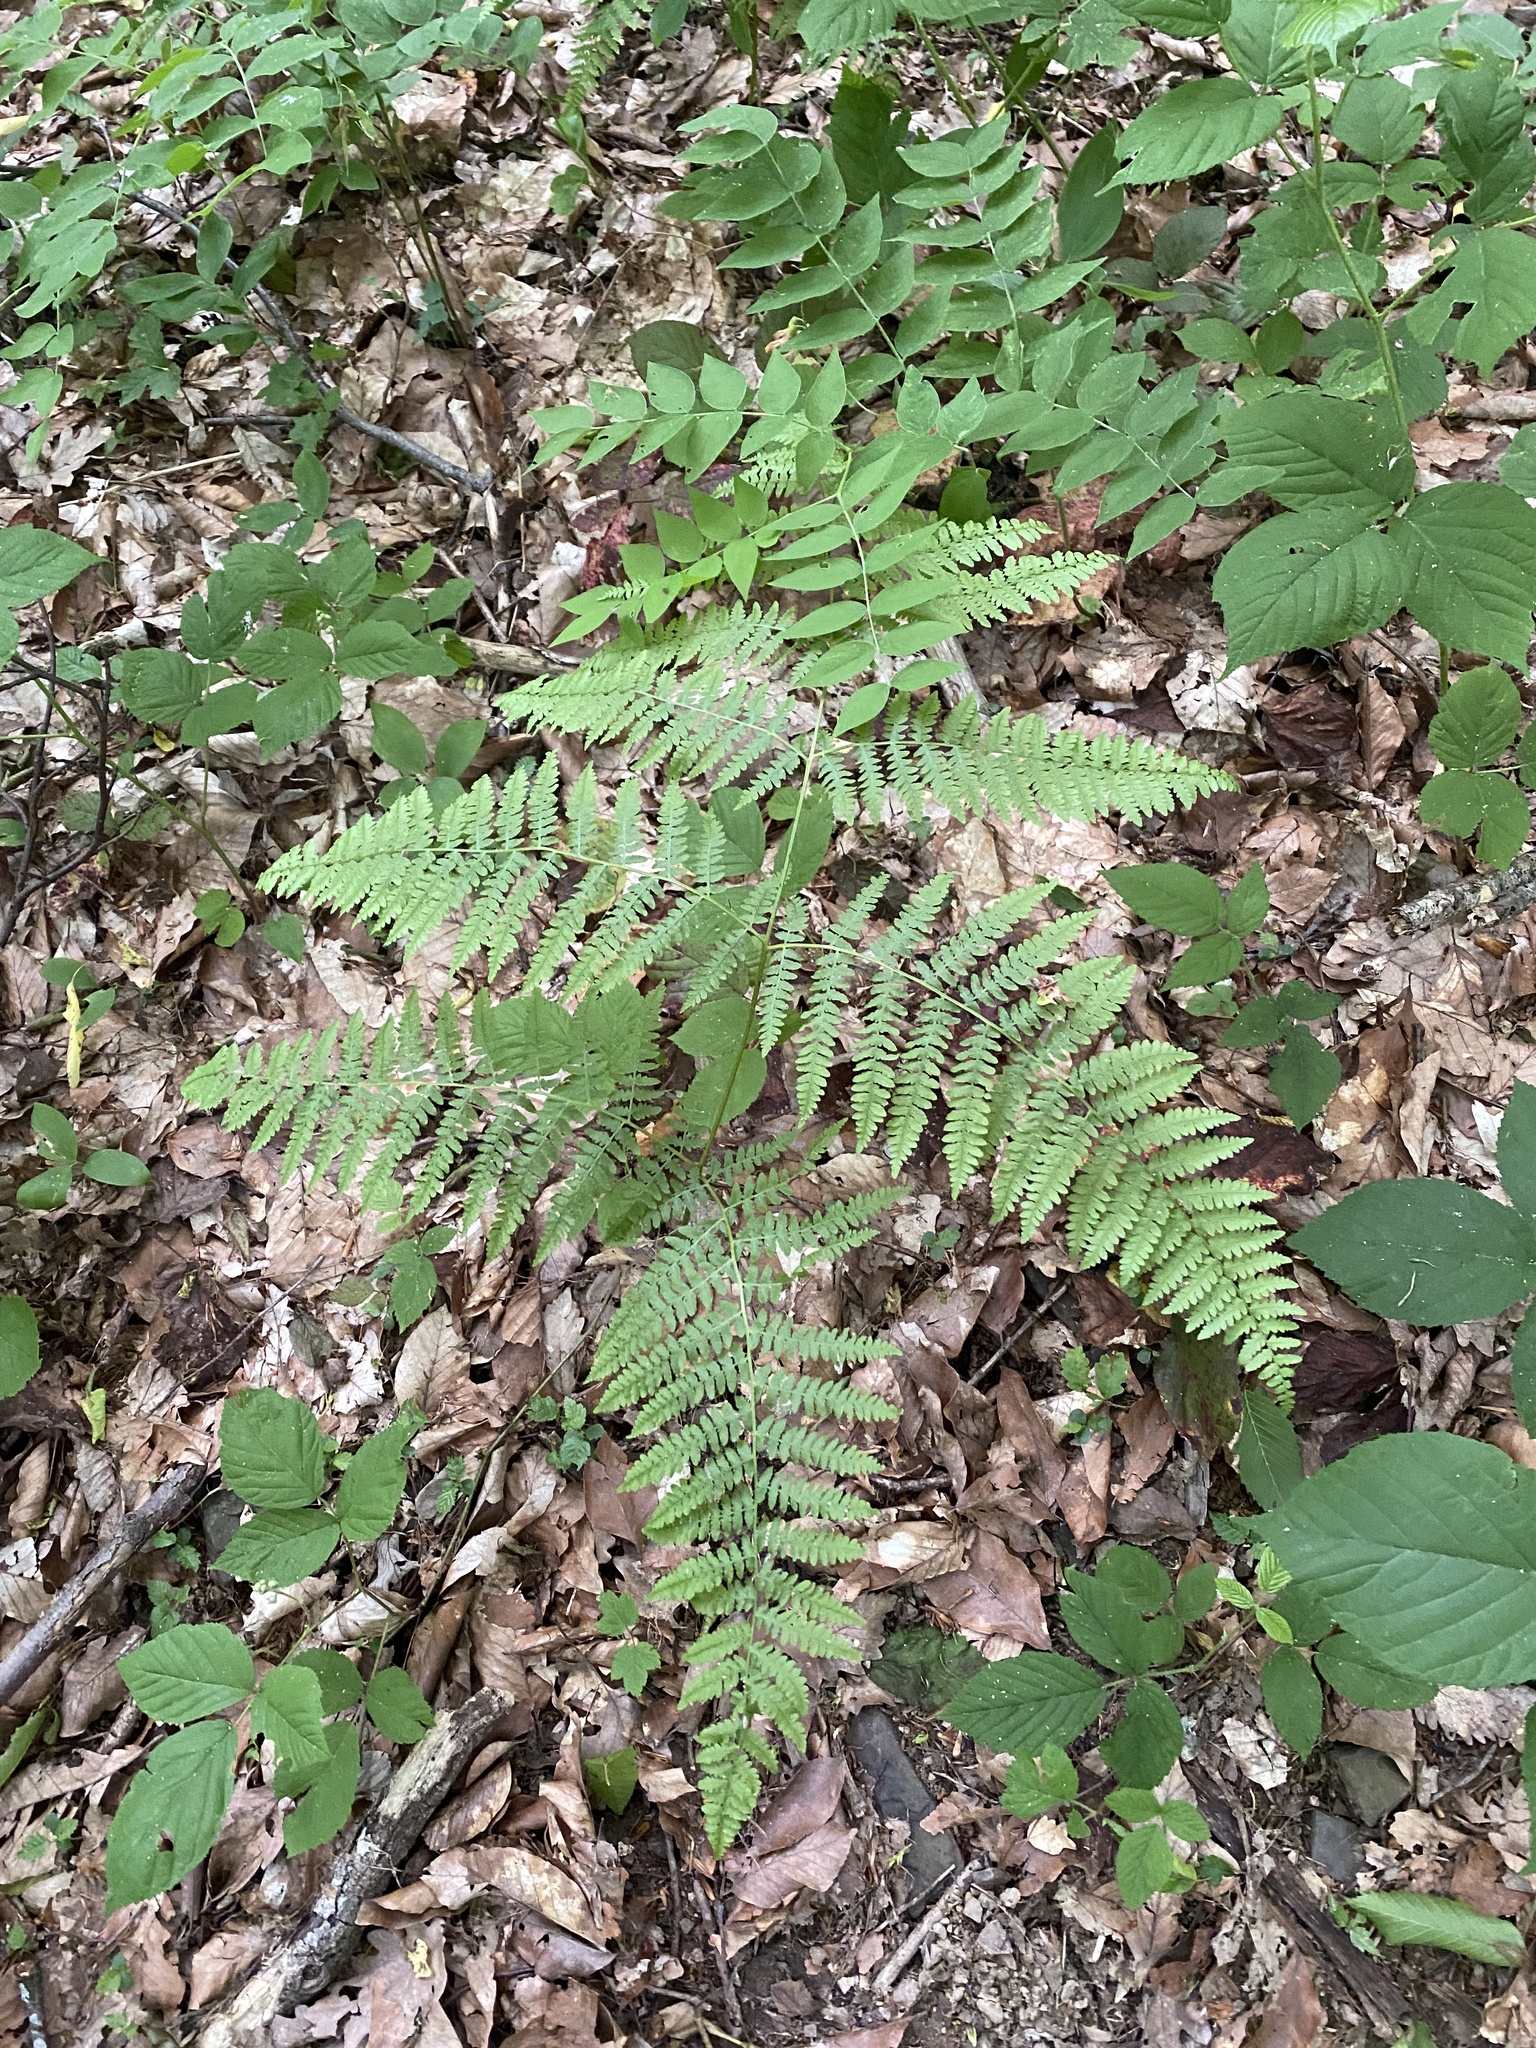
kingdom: Plantae
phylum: Tracheophyta
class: Polypodiopsida
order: Polypodiales
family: Dennstaedtiaceae
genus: Pteridium
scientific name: Pteridium tauricum
